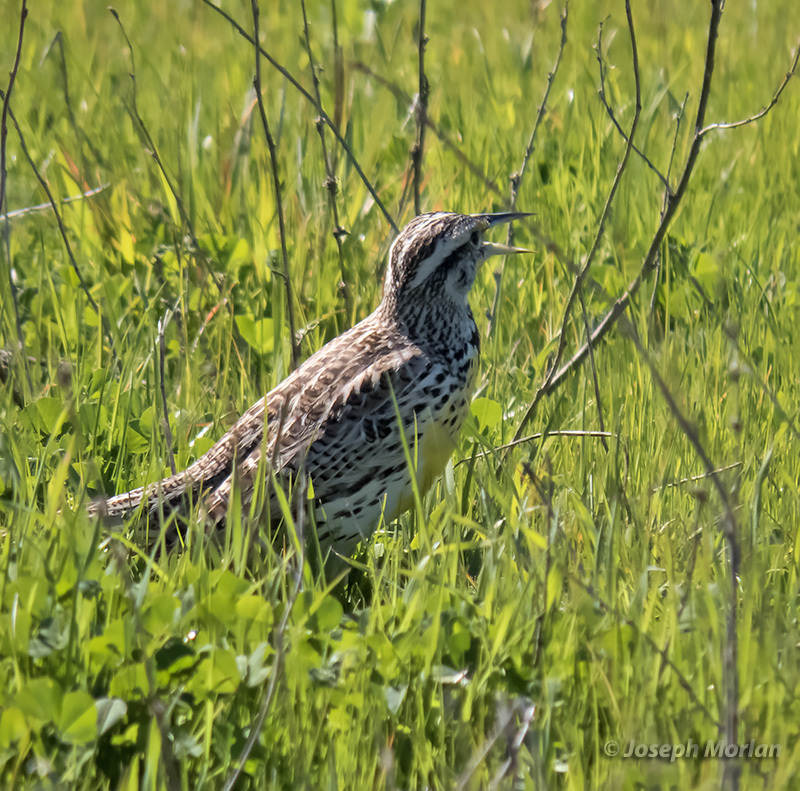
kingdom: Animalia
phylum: Chordata
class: Aves
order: Passeriformes
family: Icteridae
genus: Sturnella
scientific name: Sturnella neglecta
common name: Western meadowlark
